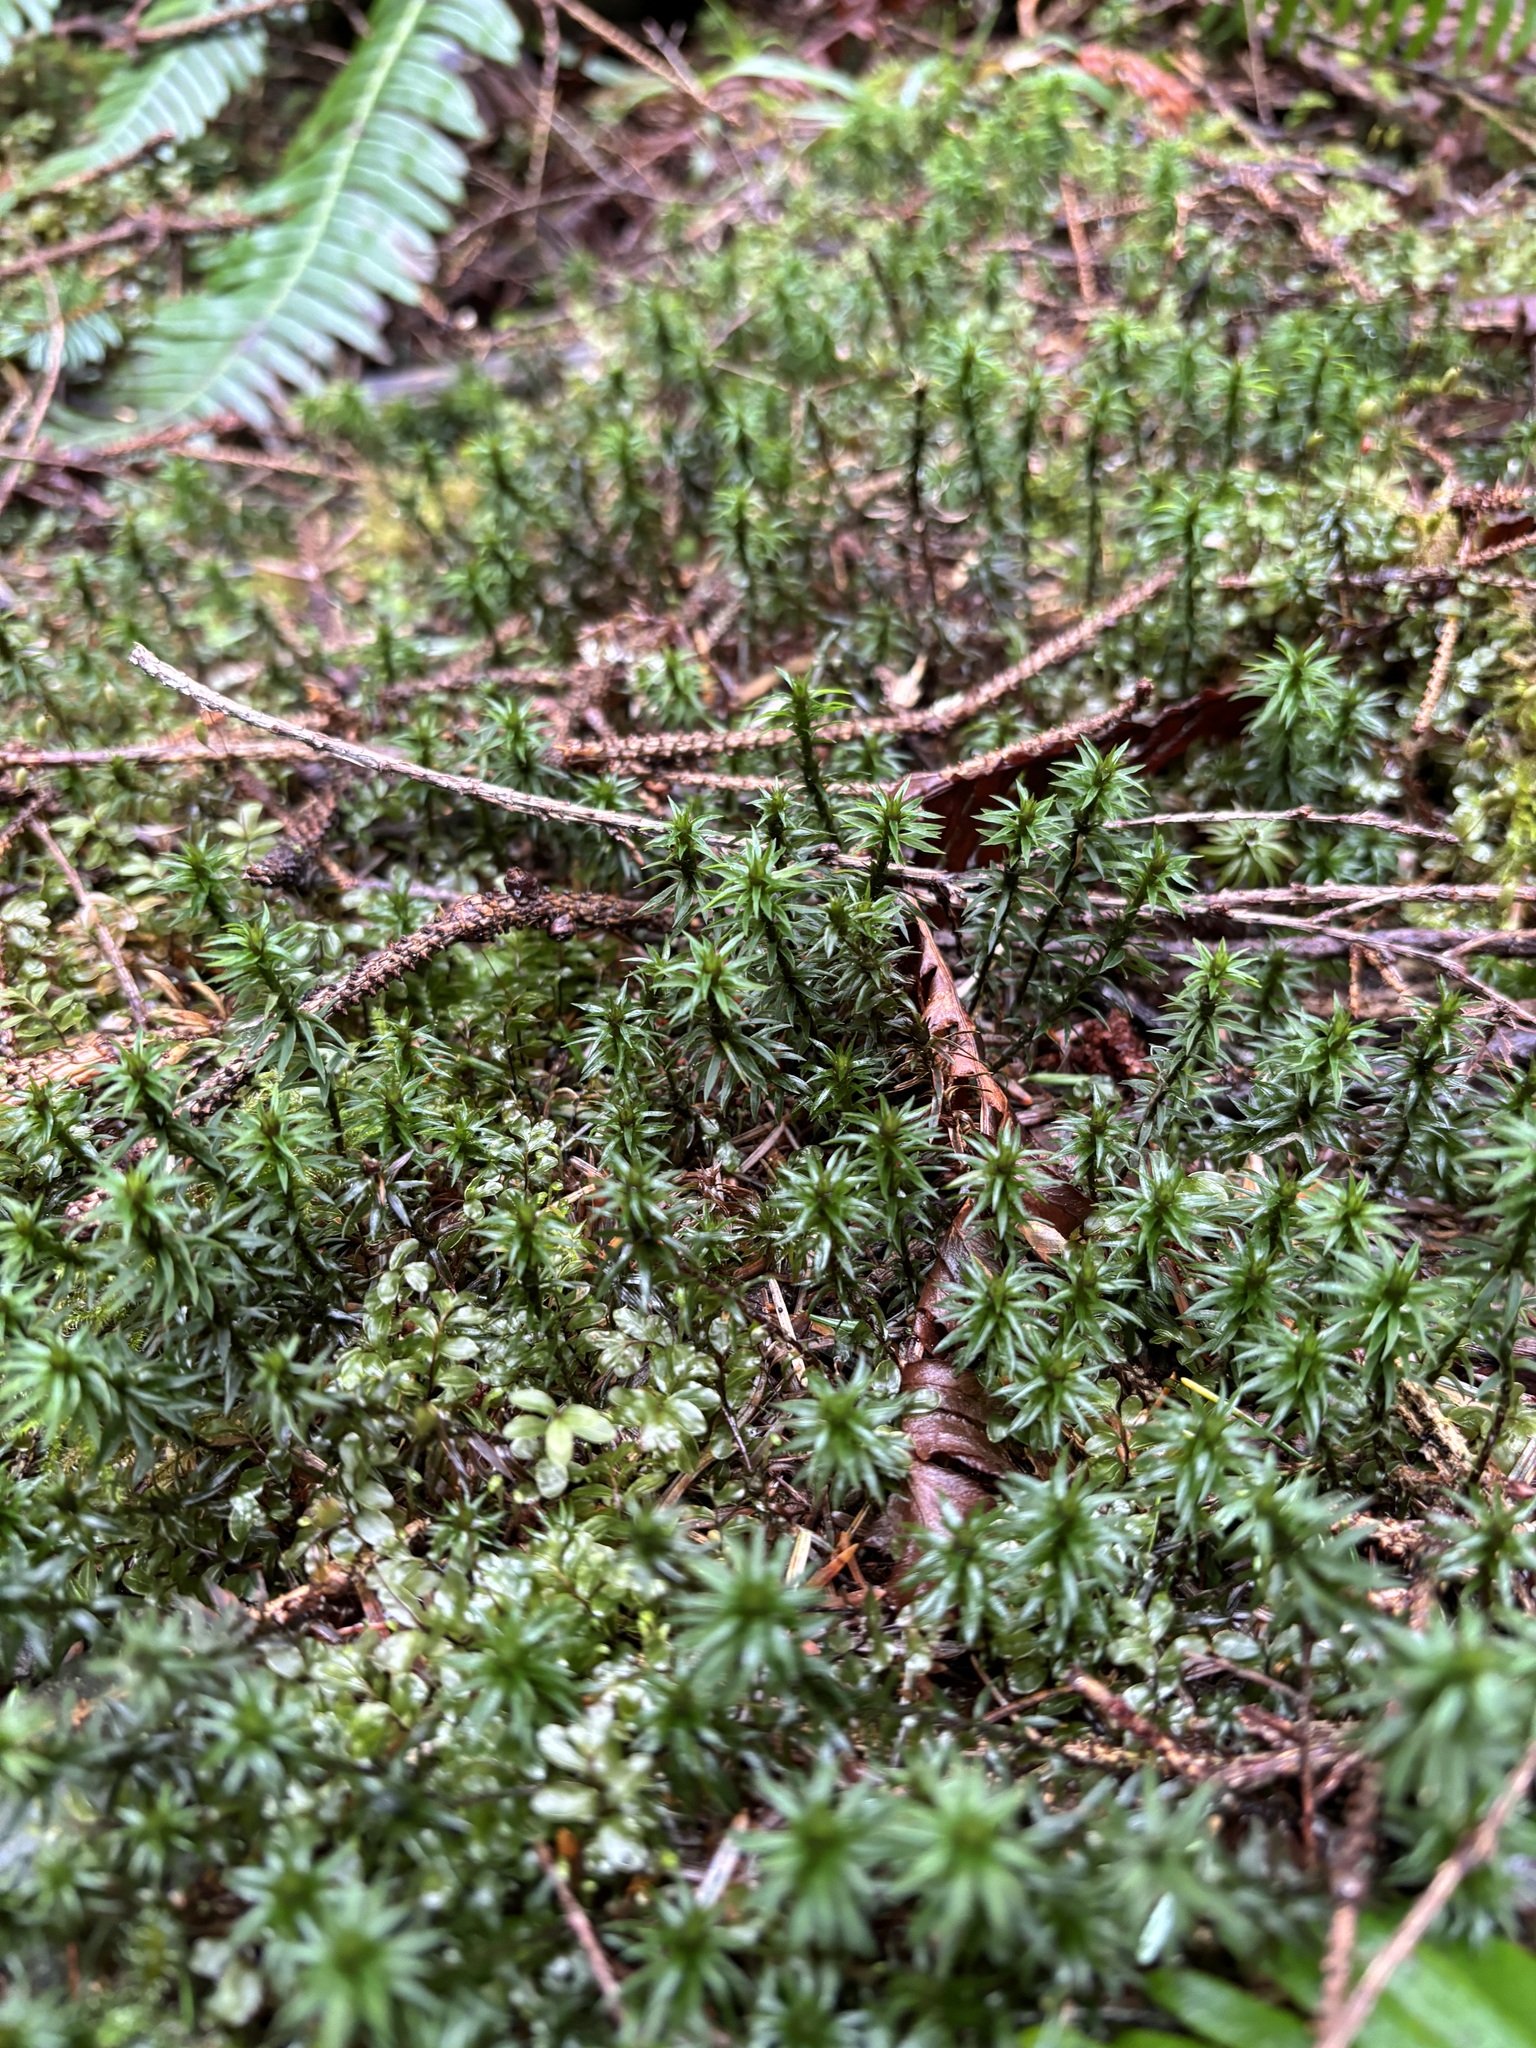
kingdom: Plantae
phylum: Bryophyta
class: Polytrichopsida
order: Polytrichales
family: Polytrichaceae
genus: Pogonatum
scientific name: Pogonatum contortum
